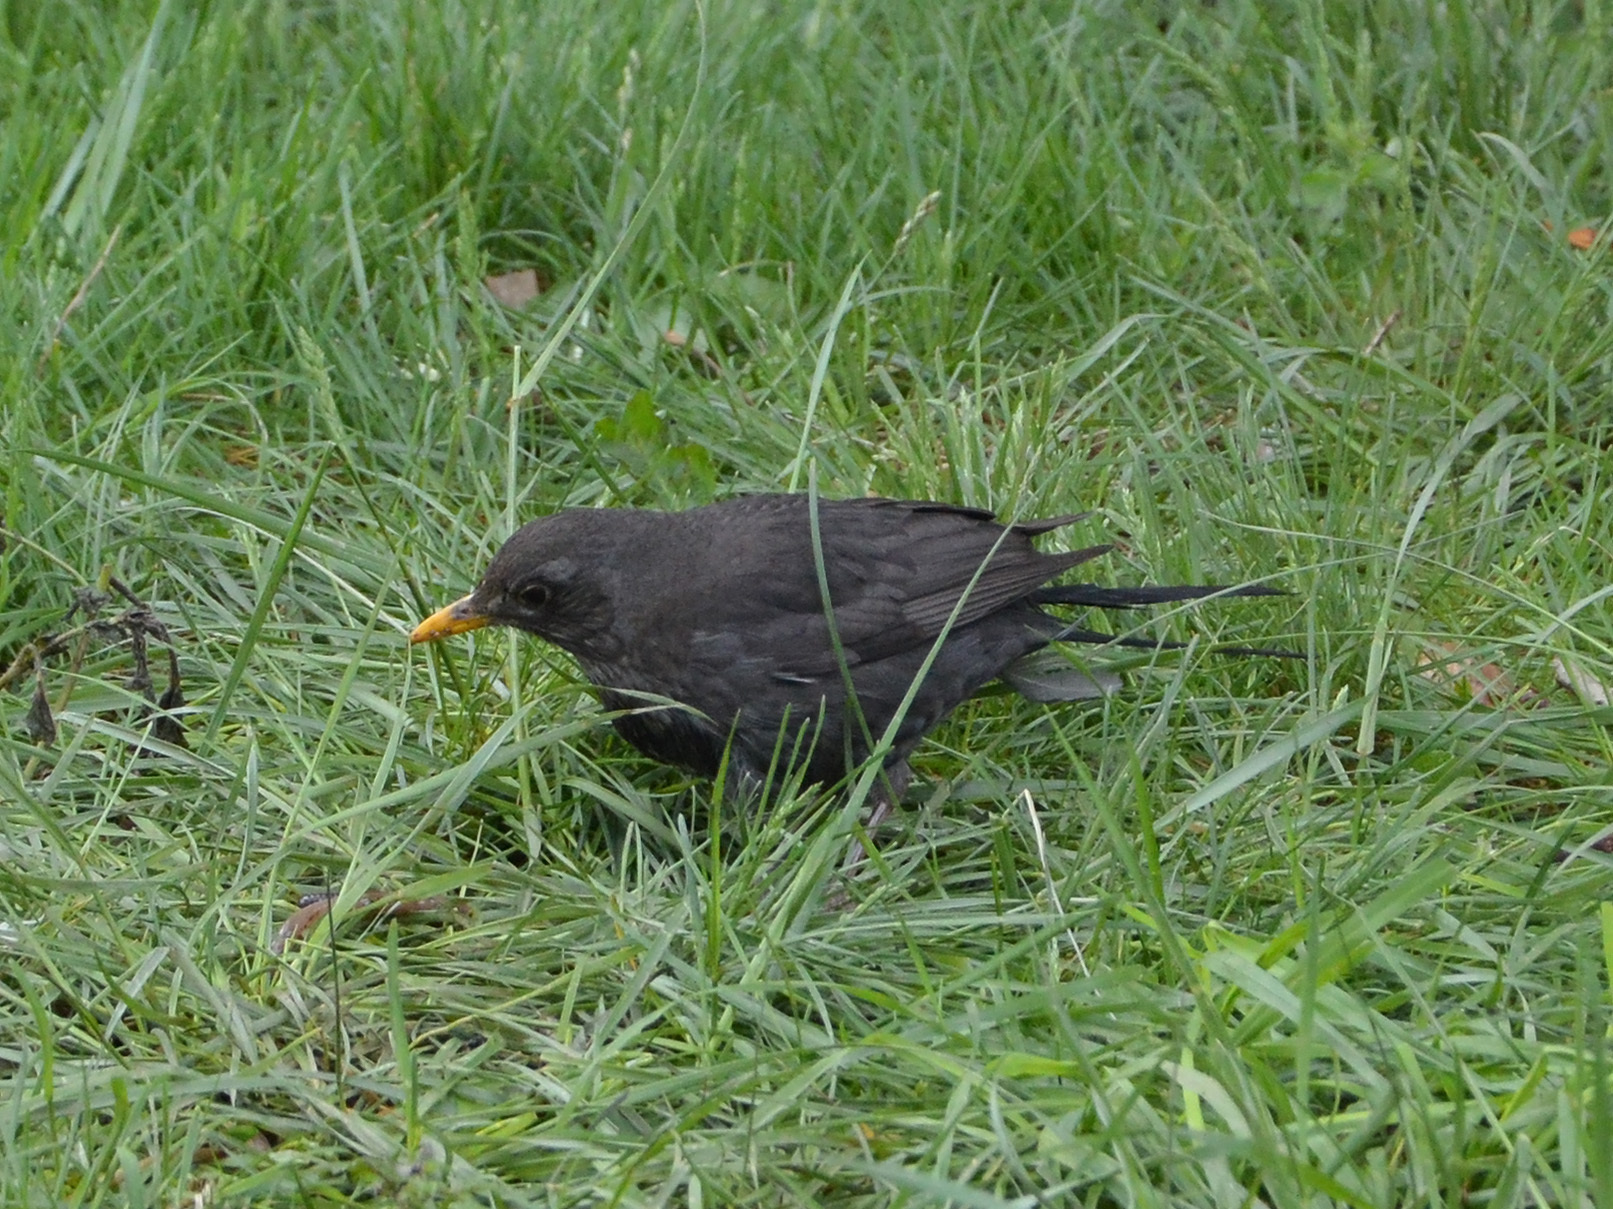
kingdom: Animalia
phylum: Chordata
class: Aves
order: Passeriformes
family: Turdidae
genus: Turdus
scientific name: Turdus merula
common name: Common blackbird
